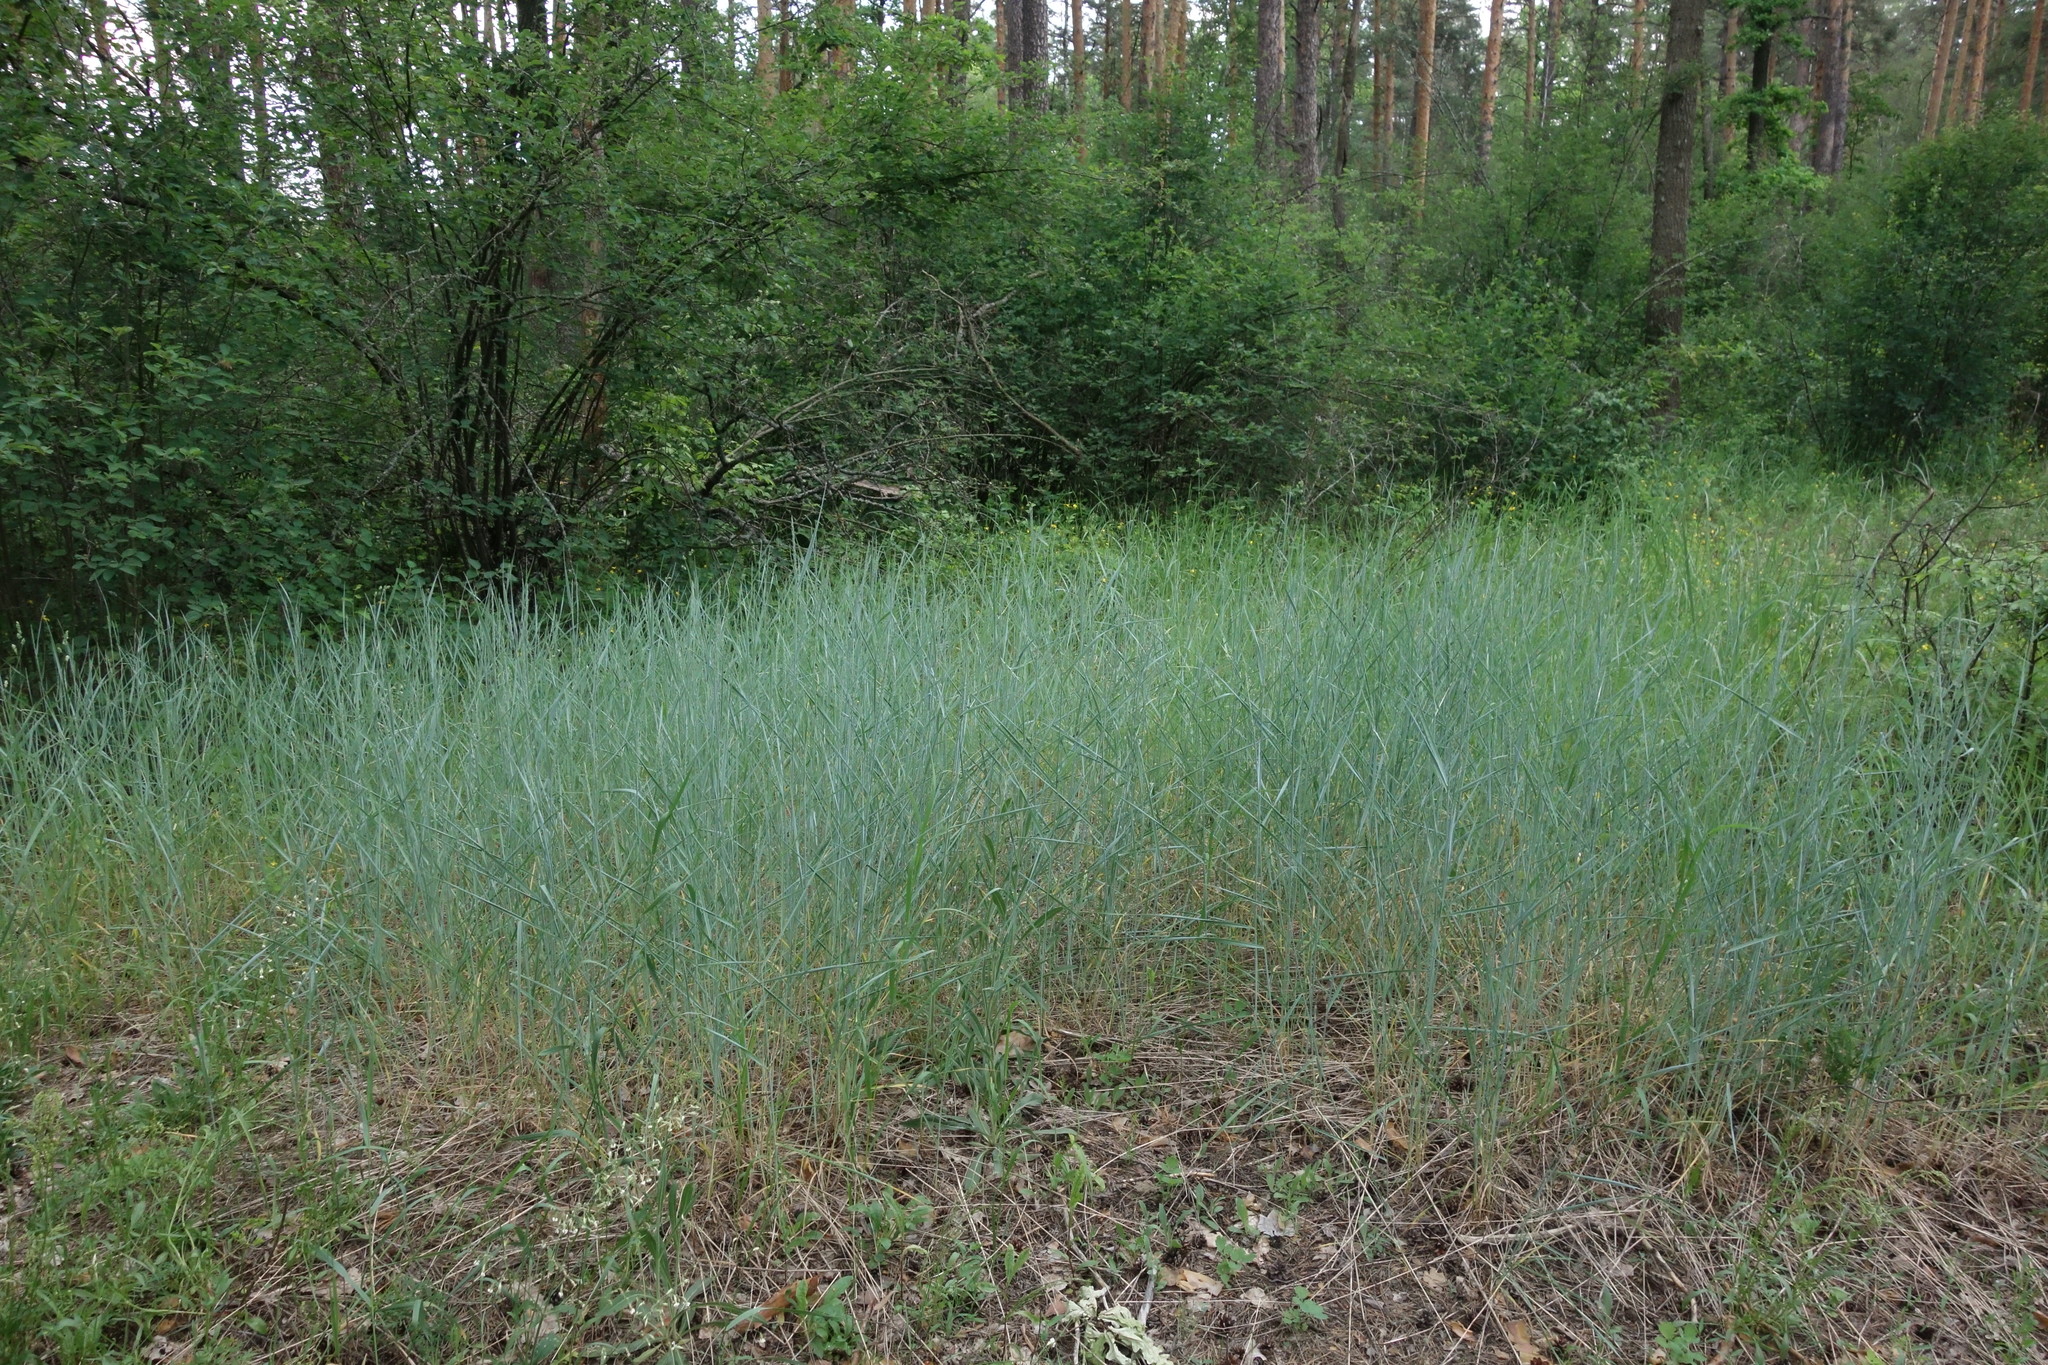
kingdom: Plantae
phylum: Tracheophyta
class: Liliopsida
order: Poales
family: Poaceae
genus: Thinopyrum
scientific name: Thinopyrum intermedium
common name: Intermediate wheatgrass
